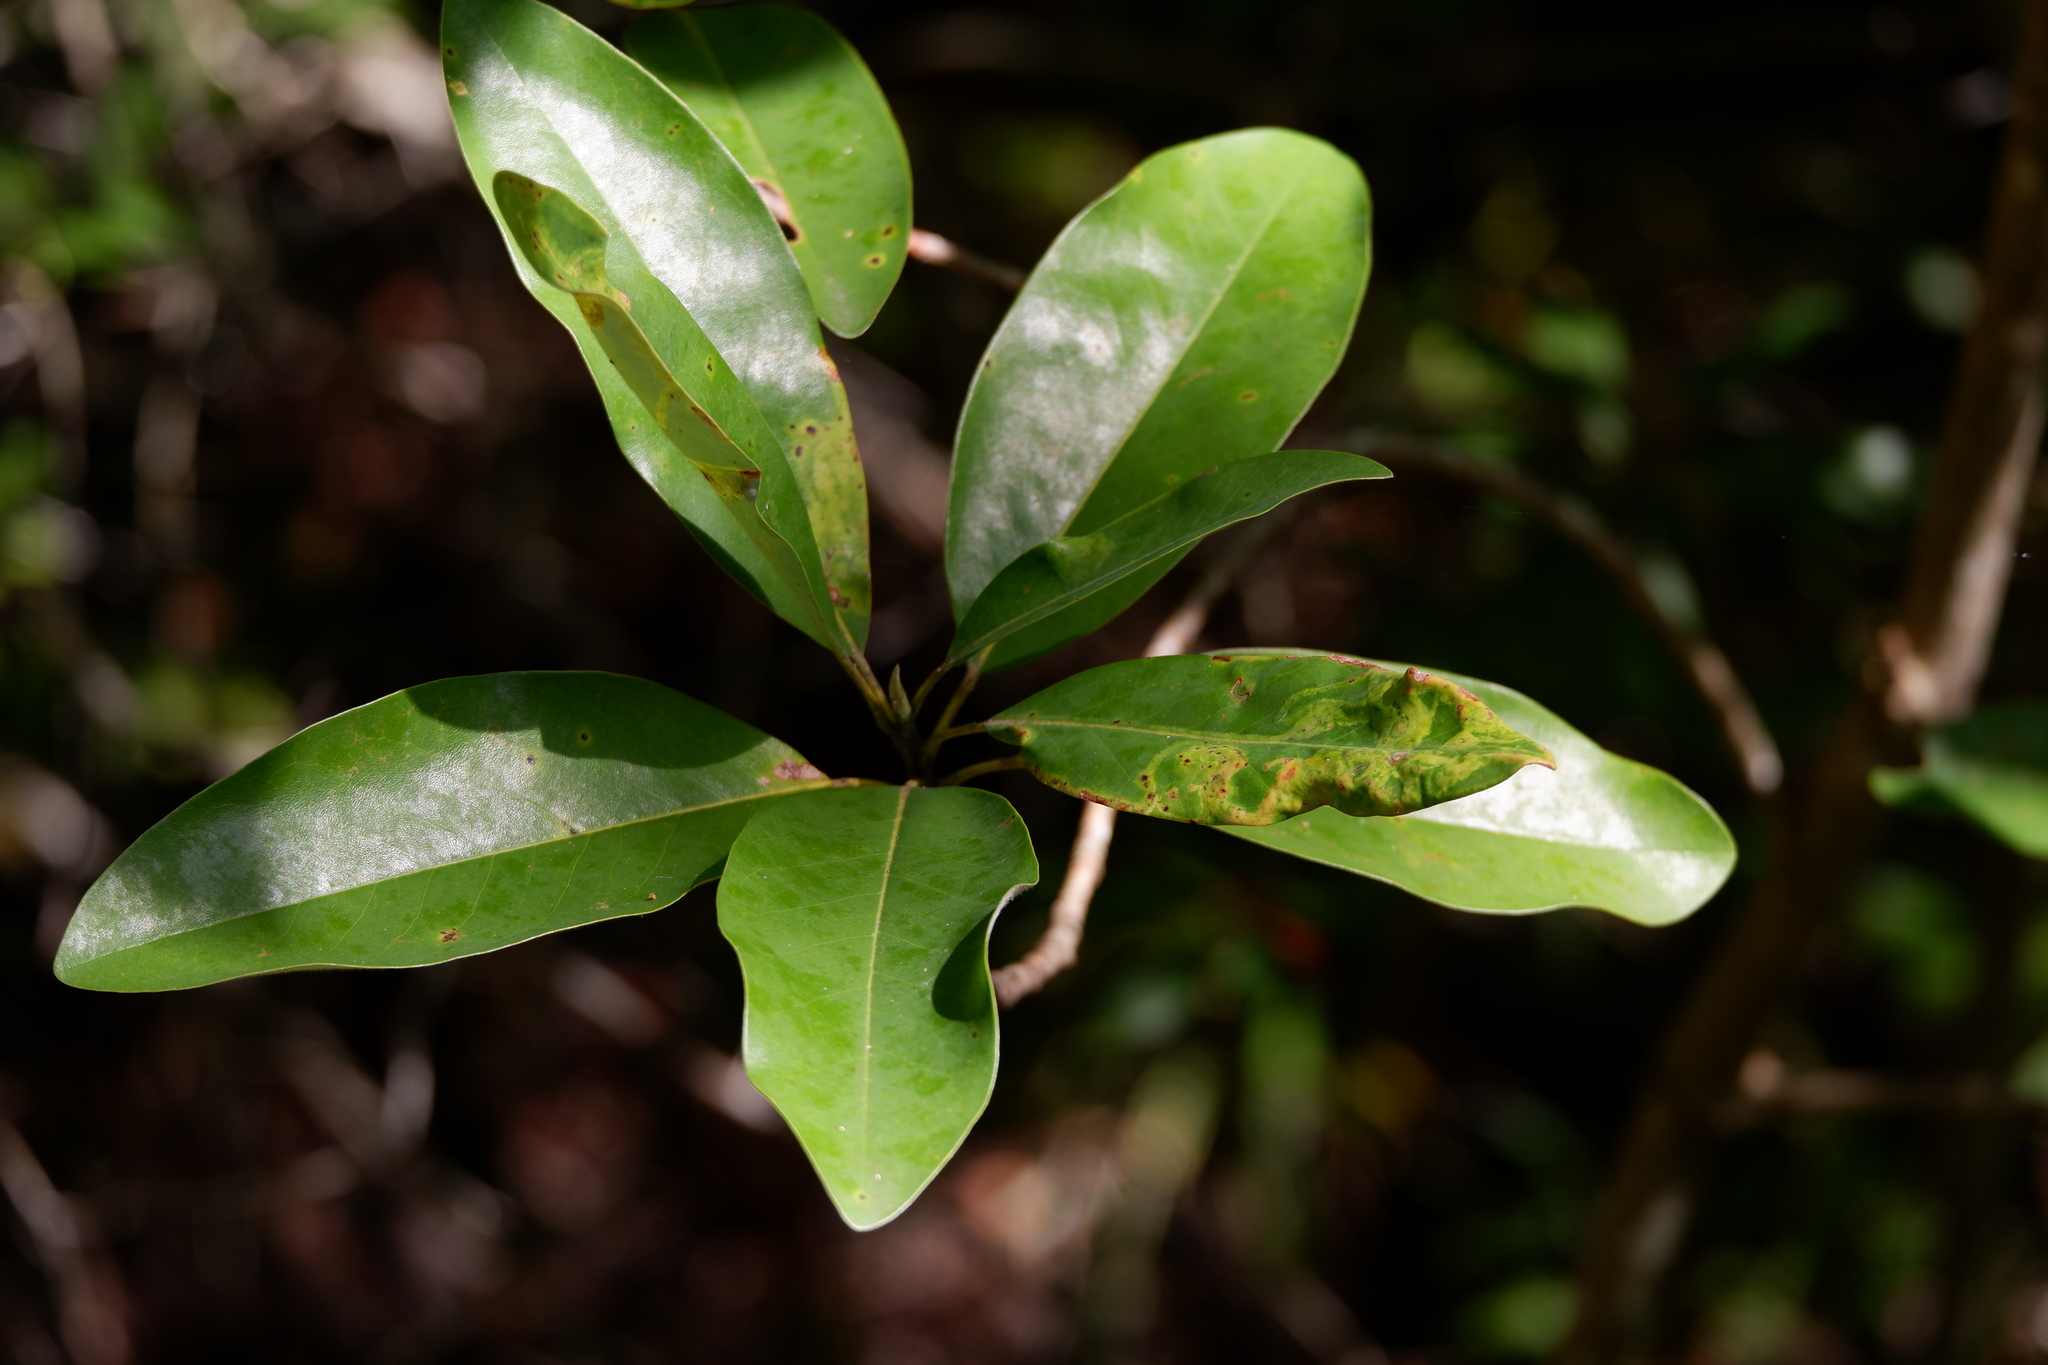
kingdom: Animalia
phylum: Arthropoda
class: Insecta
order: Lepidoptera
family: Gracillariidae
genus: Phyllocnistis
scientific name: Phyllocnistis liriodendronella
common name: Tulip tree leaf miner
